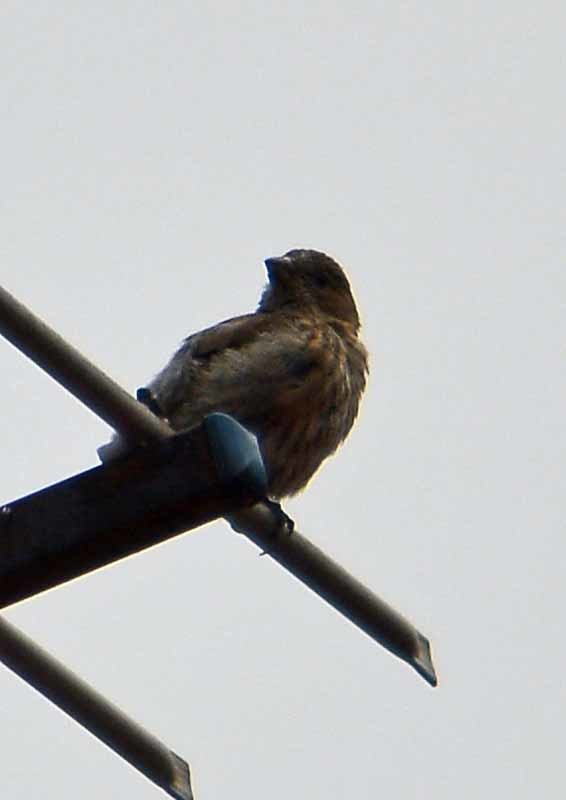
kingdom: Animalia
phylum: Chordata
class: Aves
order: Passeriformes
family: Fringillidae
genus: Haemorhous
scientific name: Haemorhous mexicanus
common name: House finch
